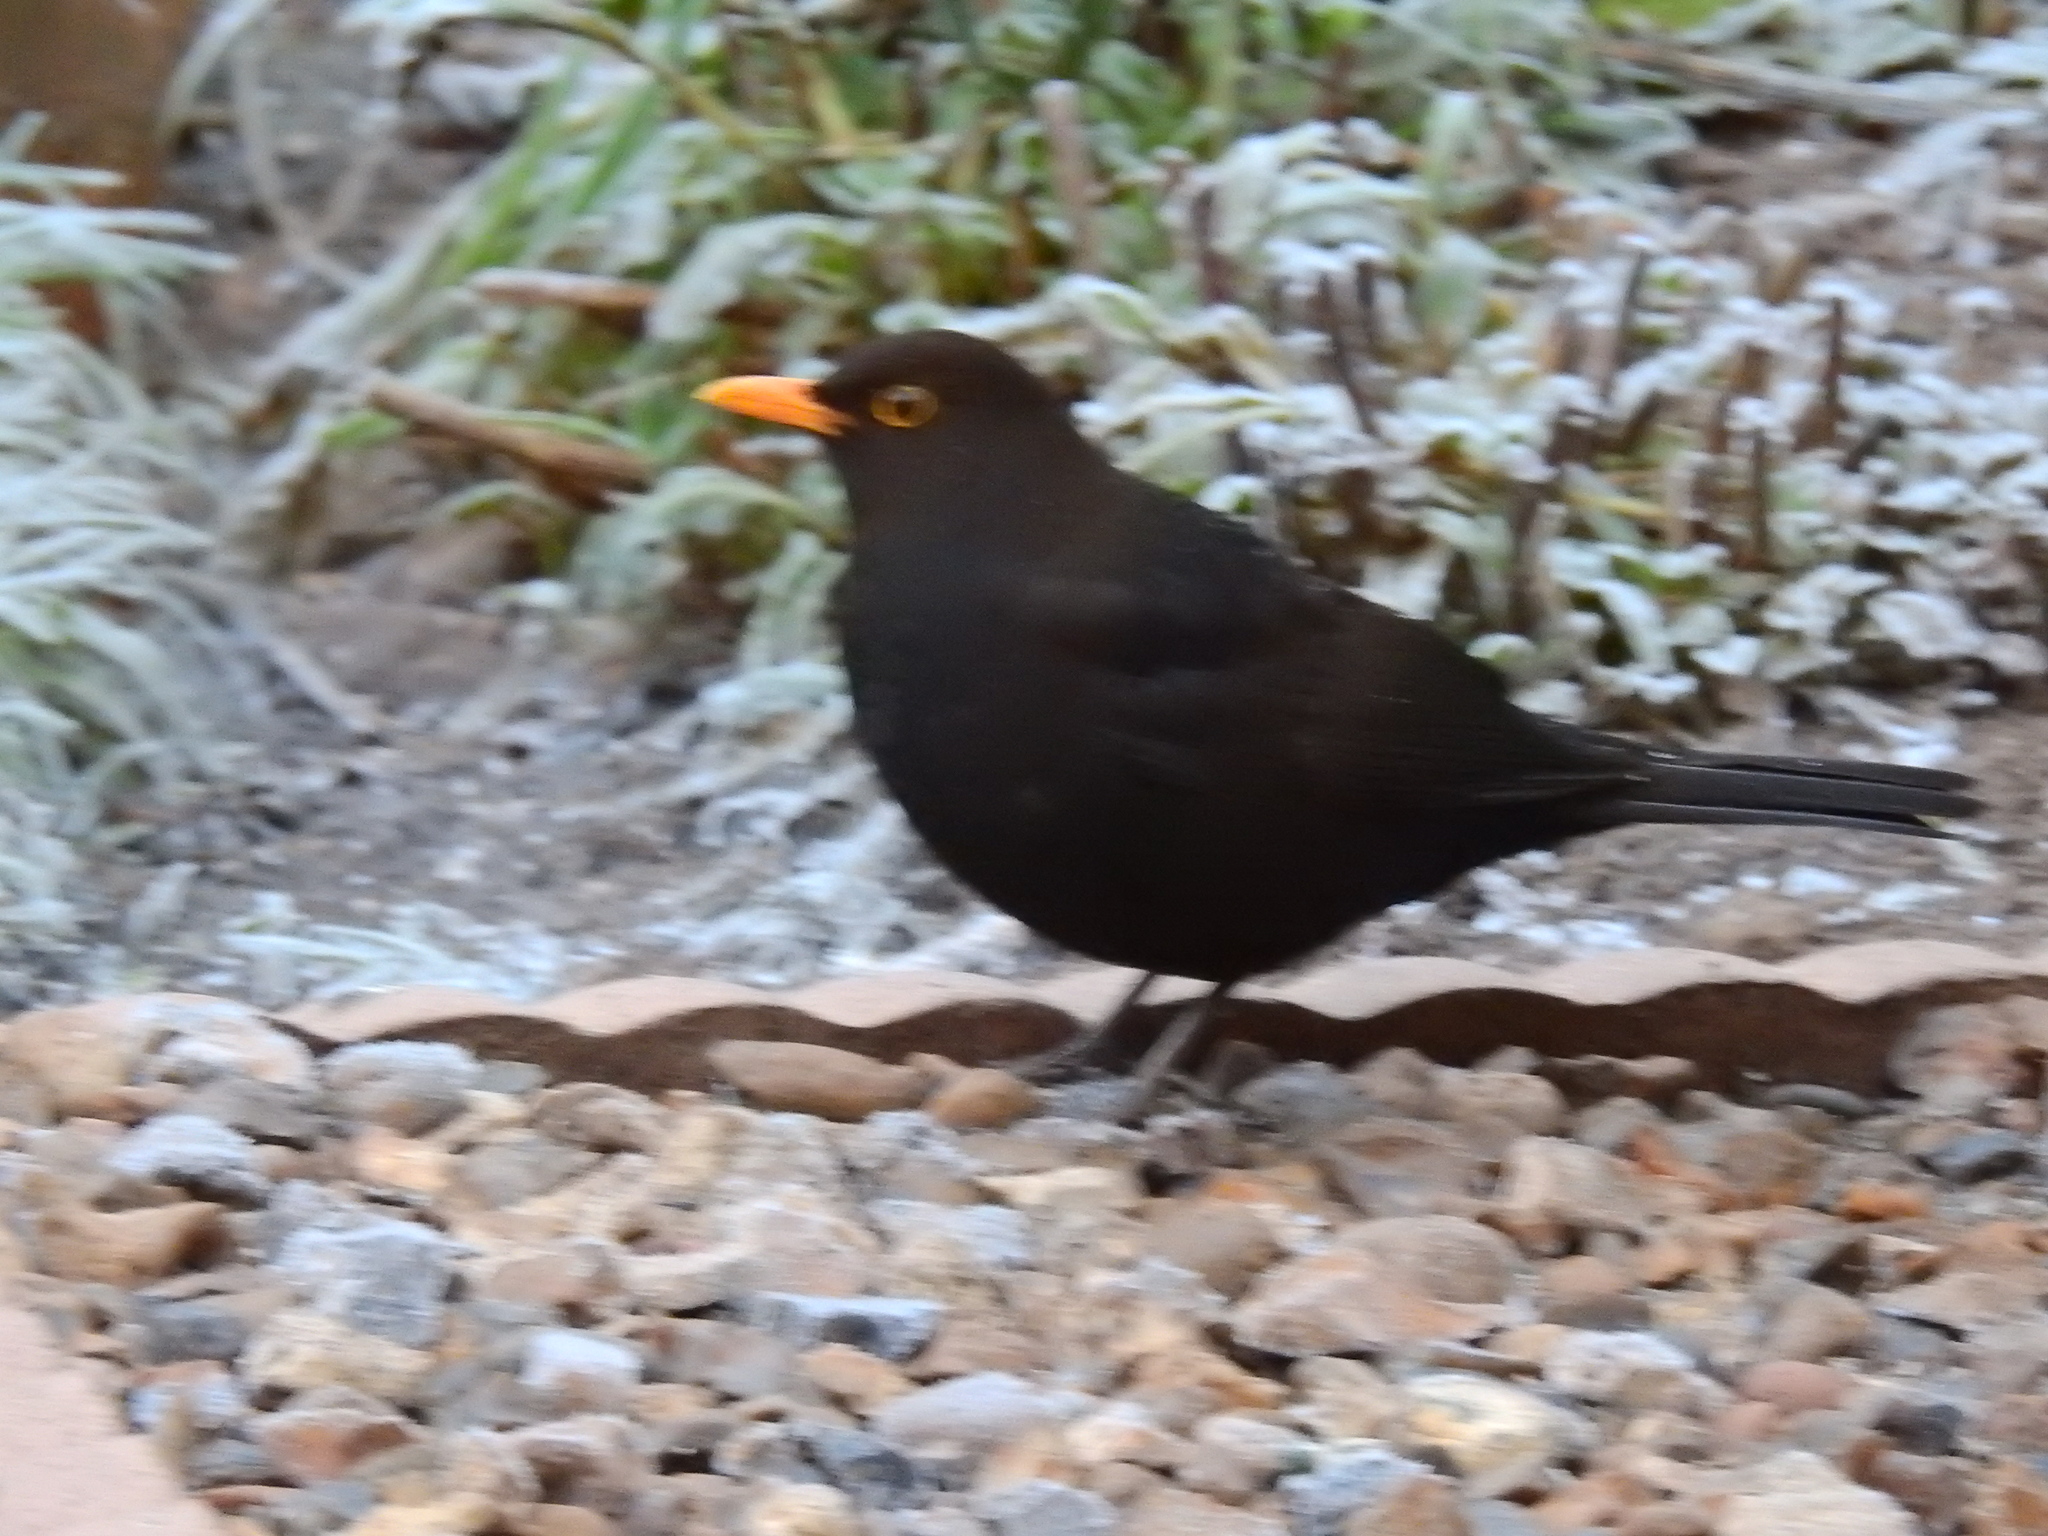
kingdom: Animalia
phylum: Chordata
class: Aves
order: Passeriformes
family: Turdidae
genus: Turdus
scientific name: Turdus merula
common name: Common blackbird
